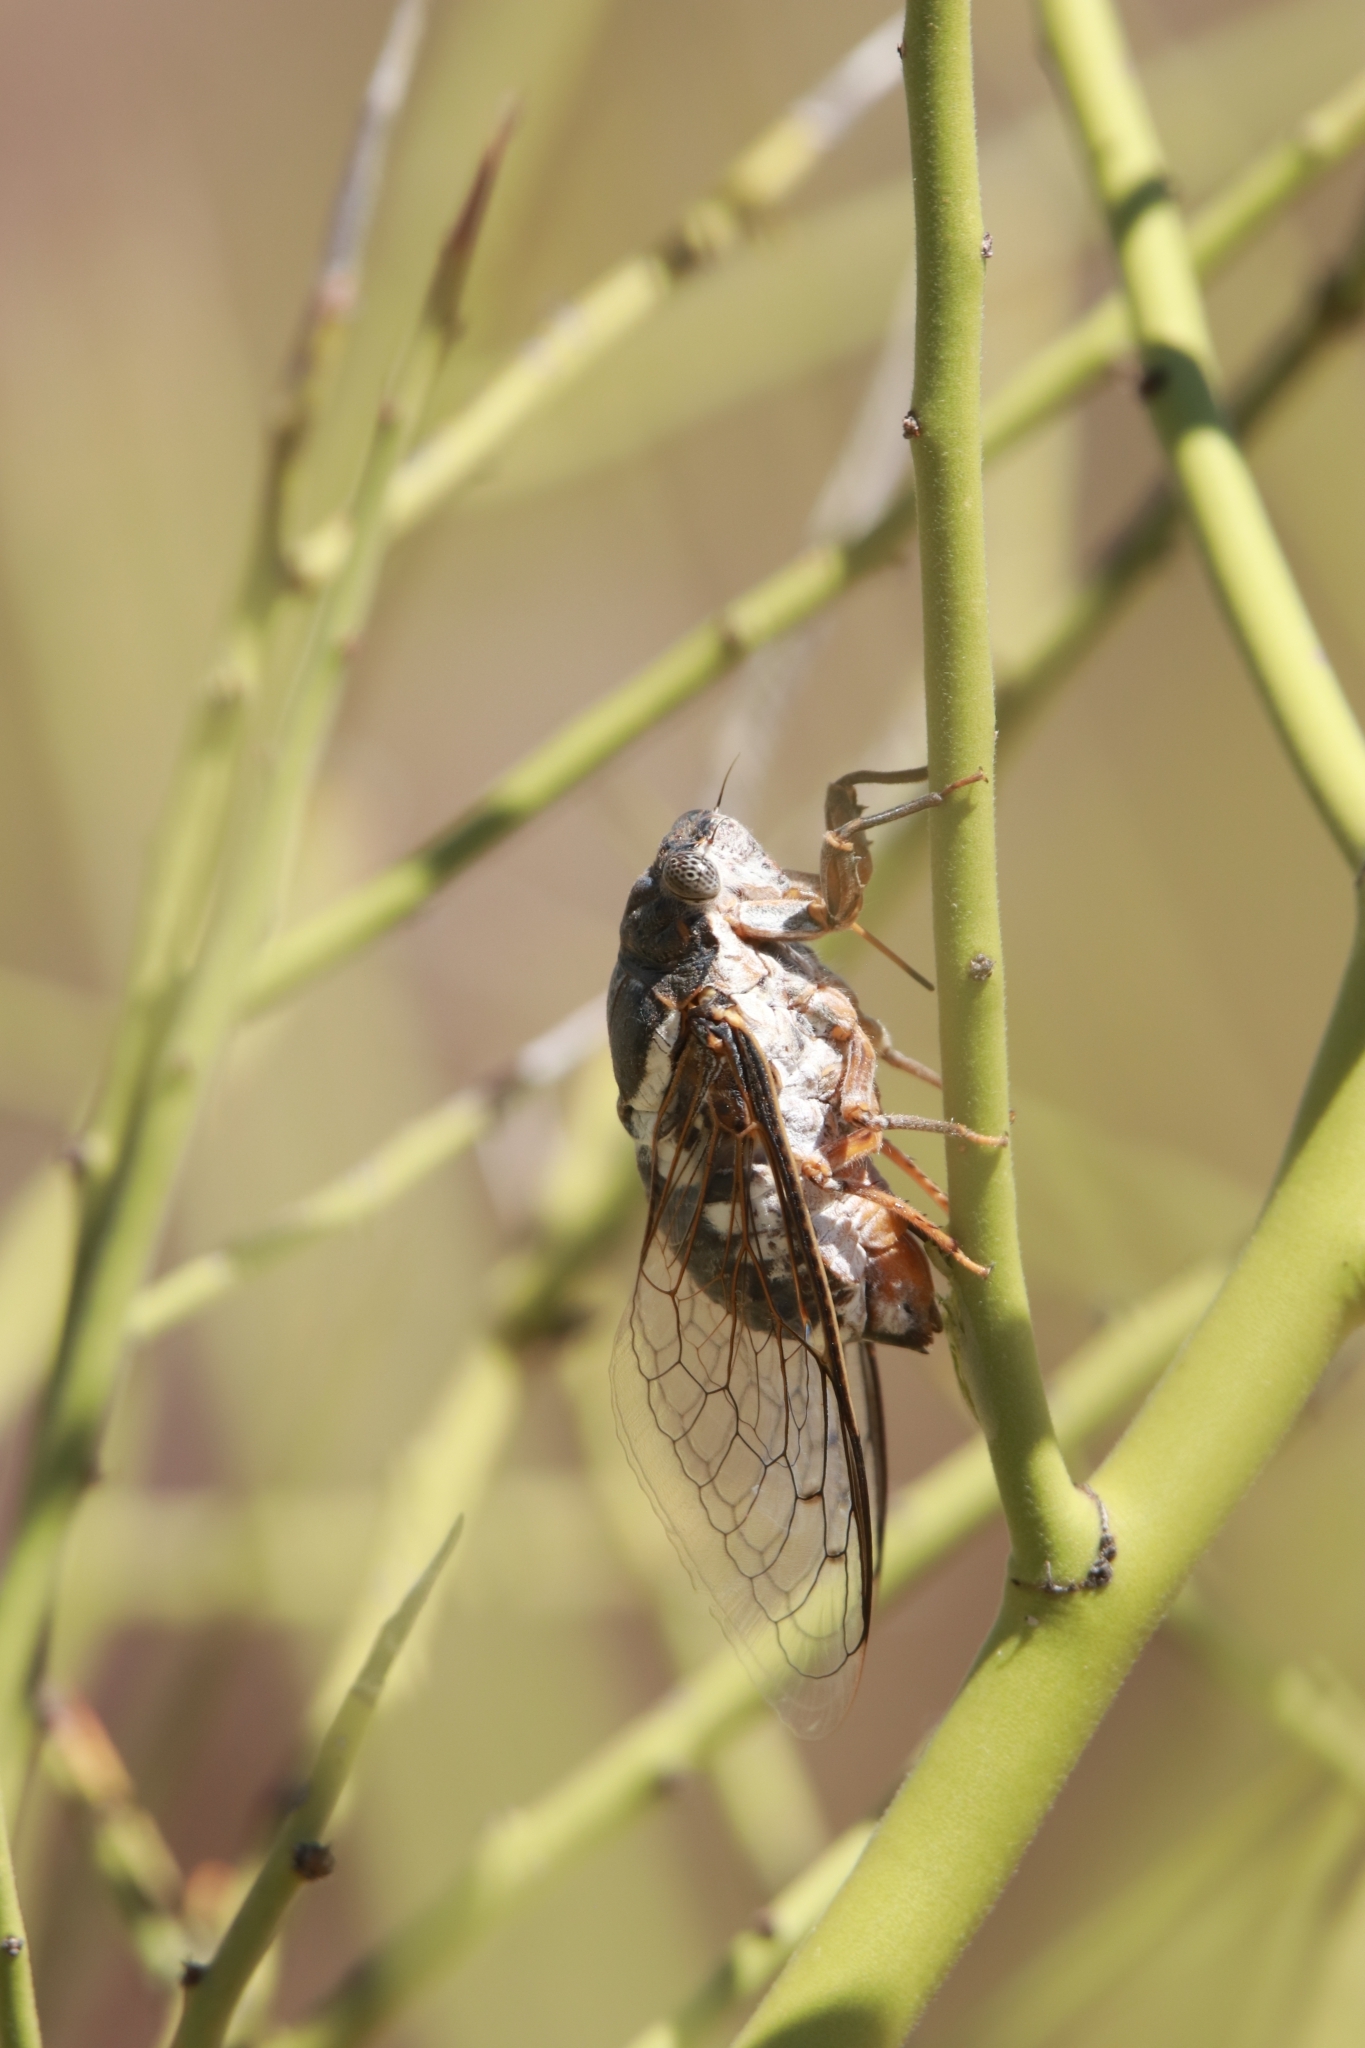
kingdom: Animalia
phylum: Arthropoda
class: Insecta
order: Hemiptera
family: Cicadidae
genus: Cacama
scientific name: Cacama moorei
